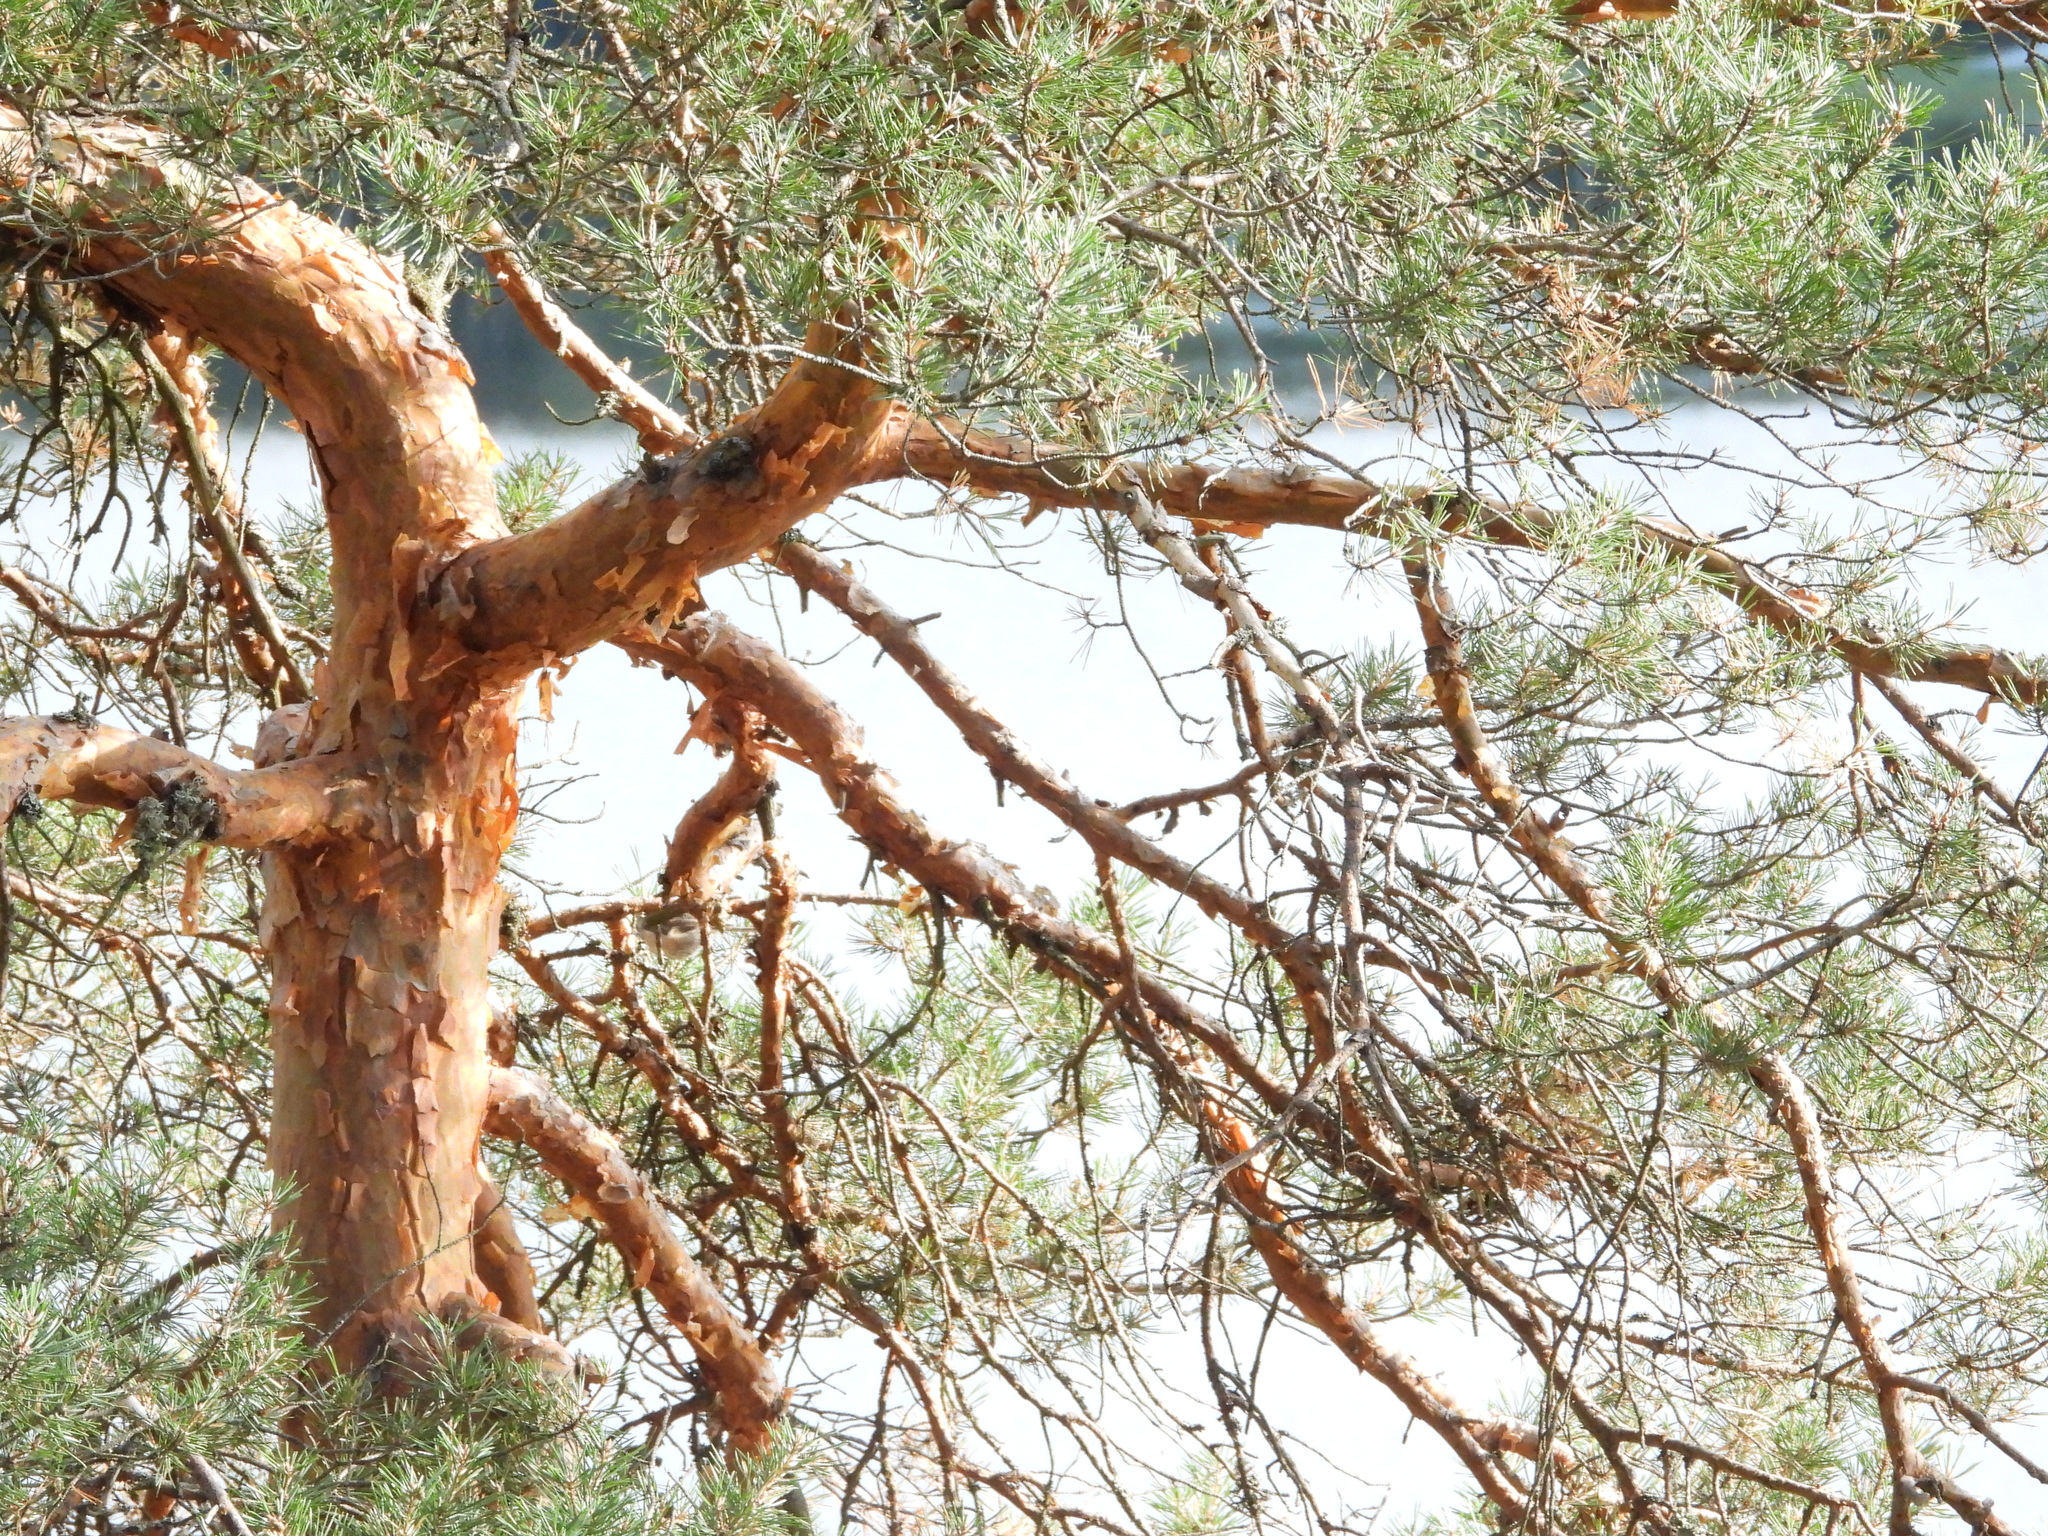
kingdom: Plantae
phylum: Tracheophyta
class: Pinopsida
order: Pinales
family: Pinaceae
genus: Pinus
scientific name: Pinus sylvestris
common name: Scots pine
